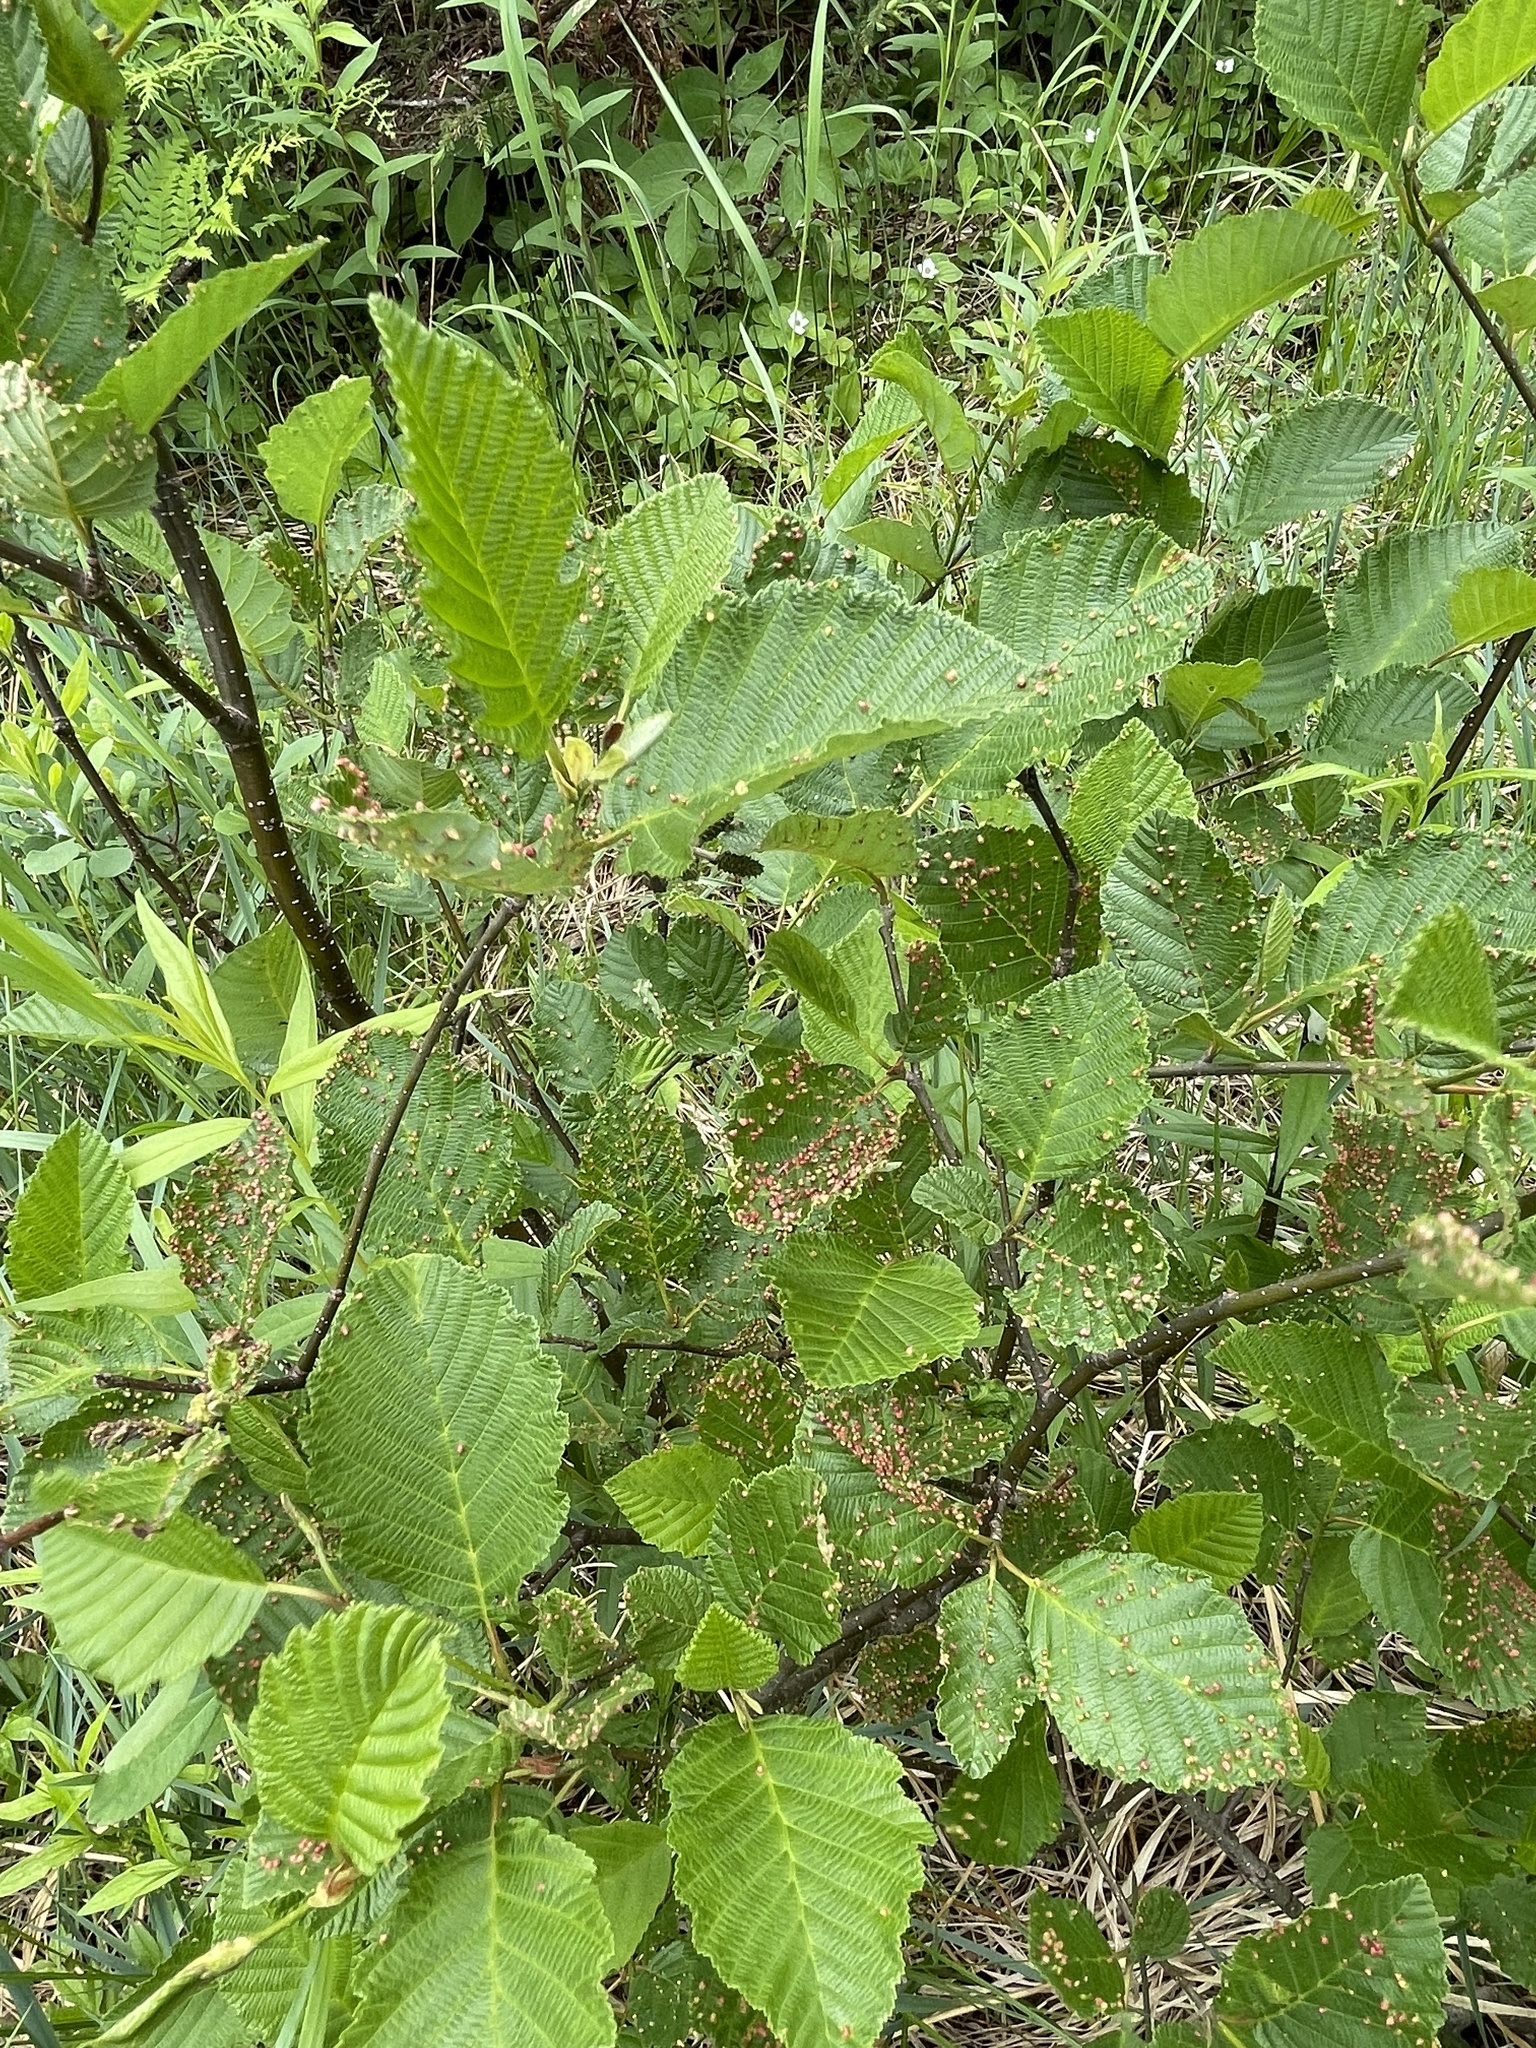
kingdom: Animalia
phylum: Arthropoda
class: Arachnida
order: Trombidiformes
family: Eriophyidae
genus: Eriophyes
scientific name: Eriophyes laevis
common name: Alder leaf gall mite
